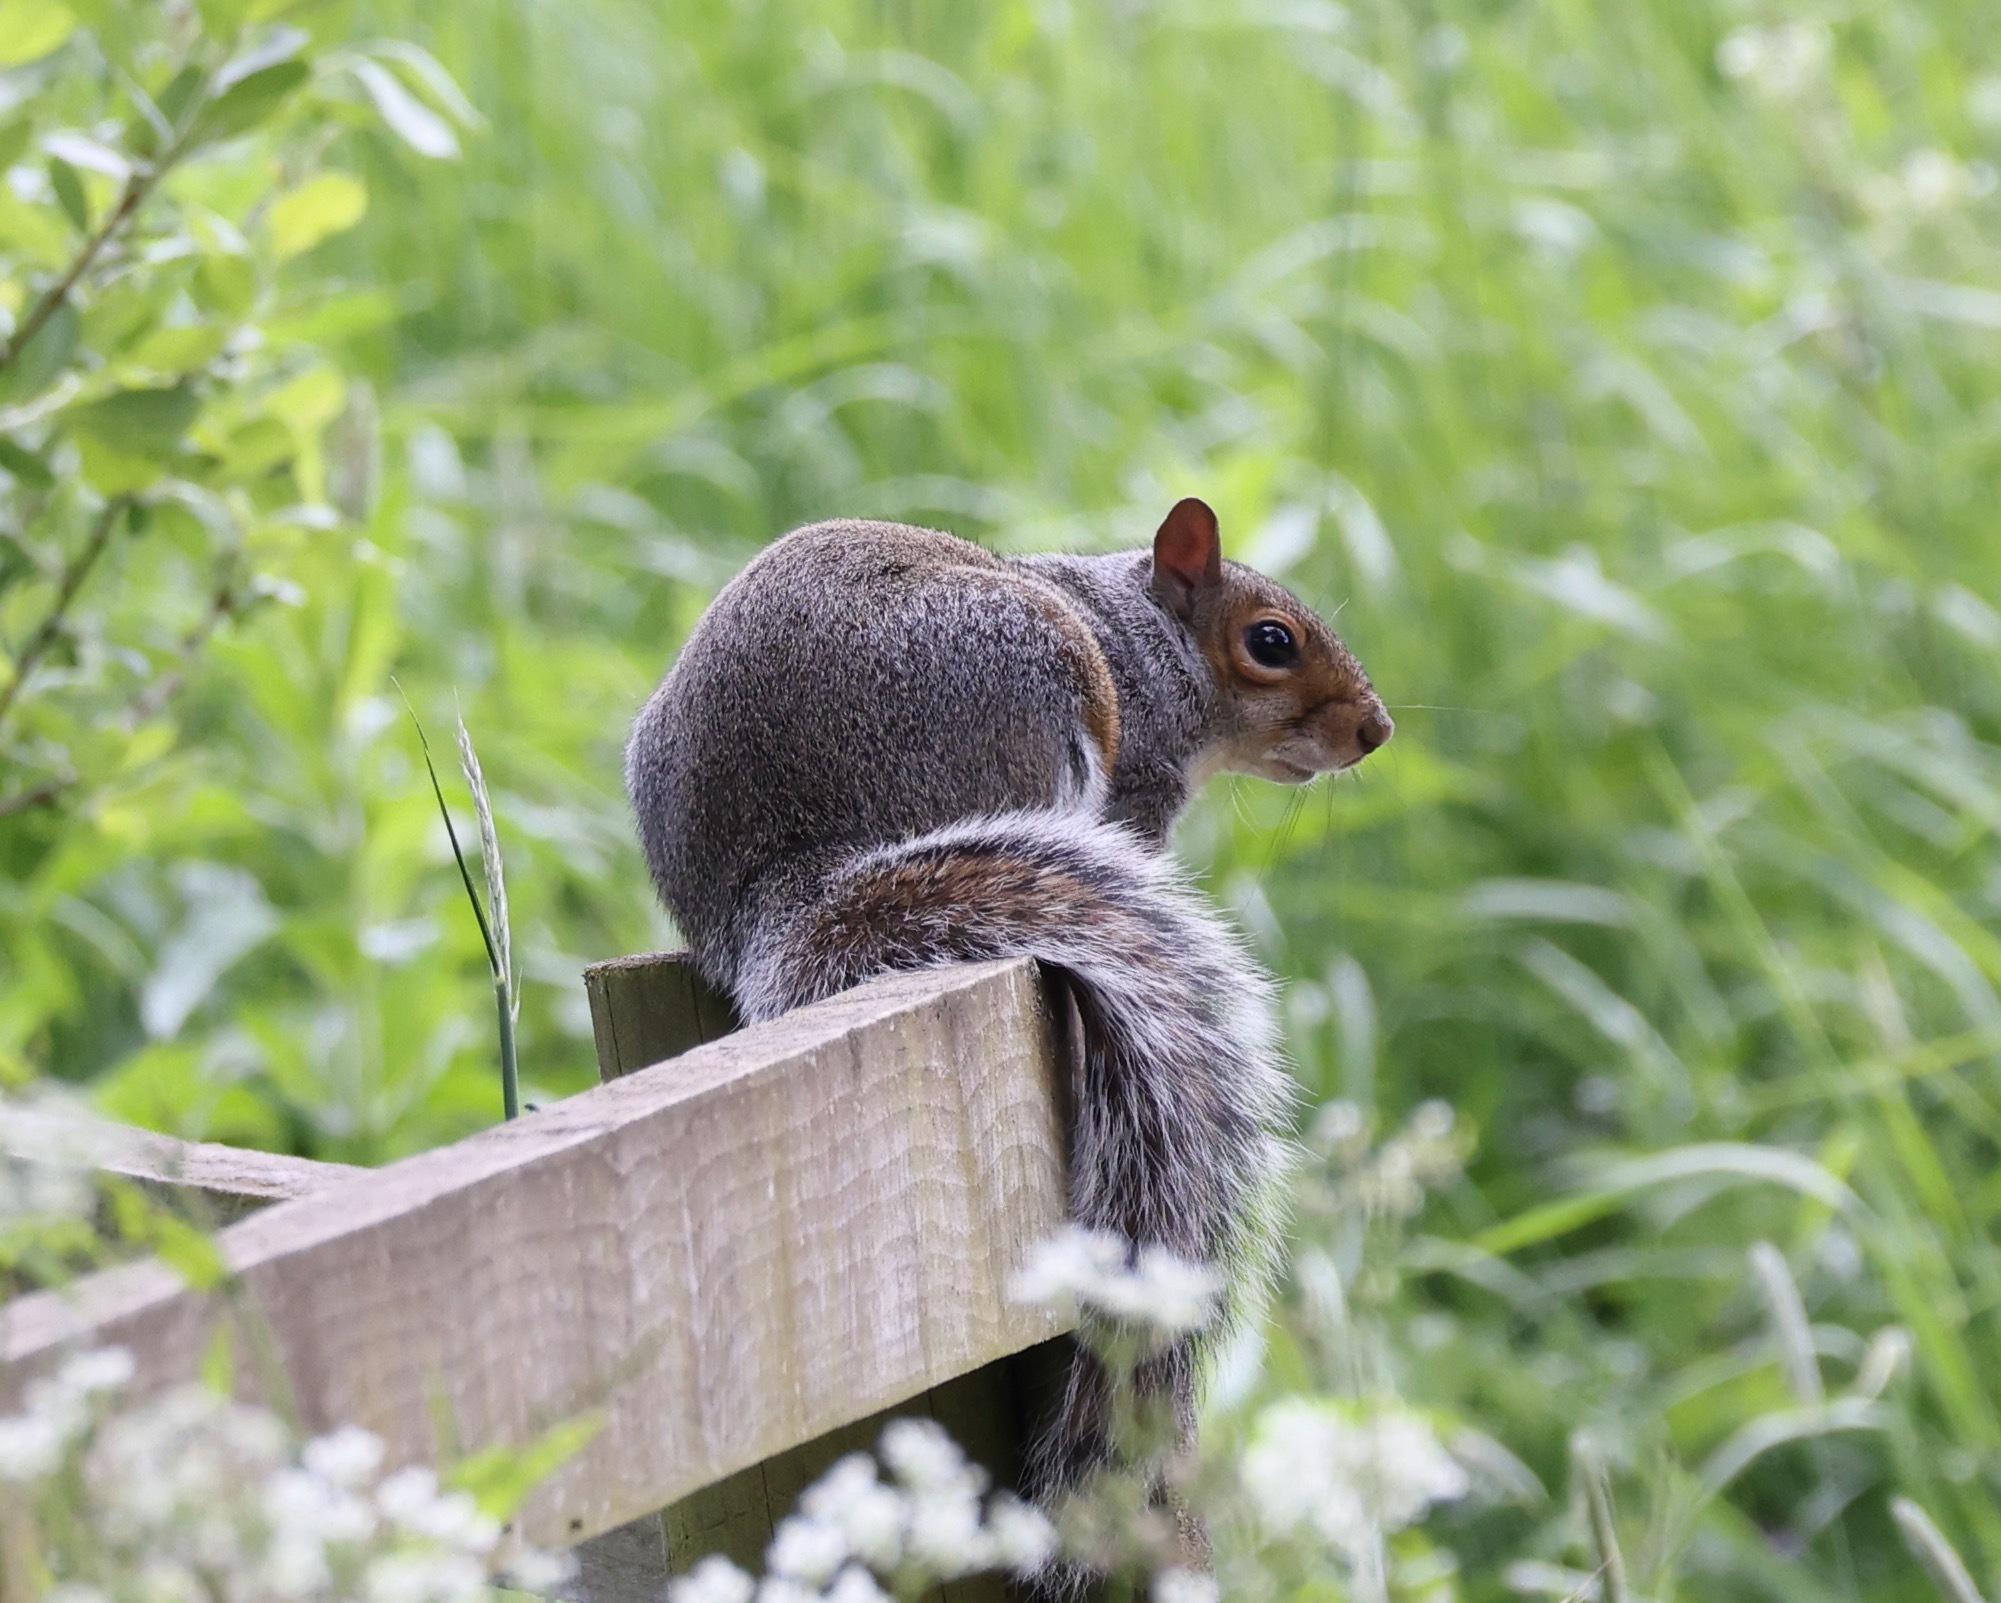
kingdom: Animalia
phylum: Chordata
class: Mammalia
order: Rodentia
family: Sciuridae
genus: Sciurus
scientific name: Sciurus carolinensis
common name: Eastern gray squirrel
